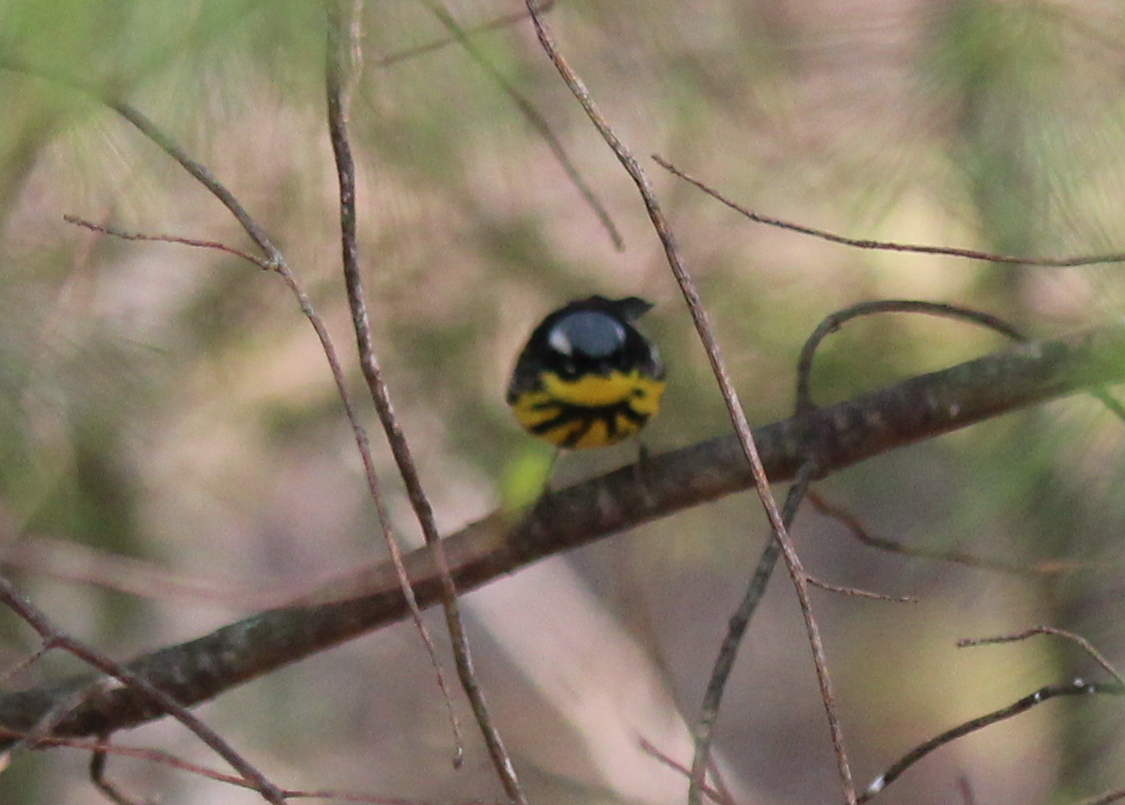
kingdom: Animalia
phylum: Chordata
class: Aves
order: Passeriformes
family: Parulidae
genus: Setophaga
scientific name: Setophaga magnolia
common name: Magnolia warbler
